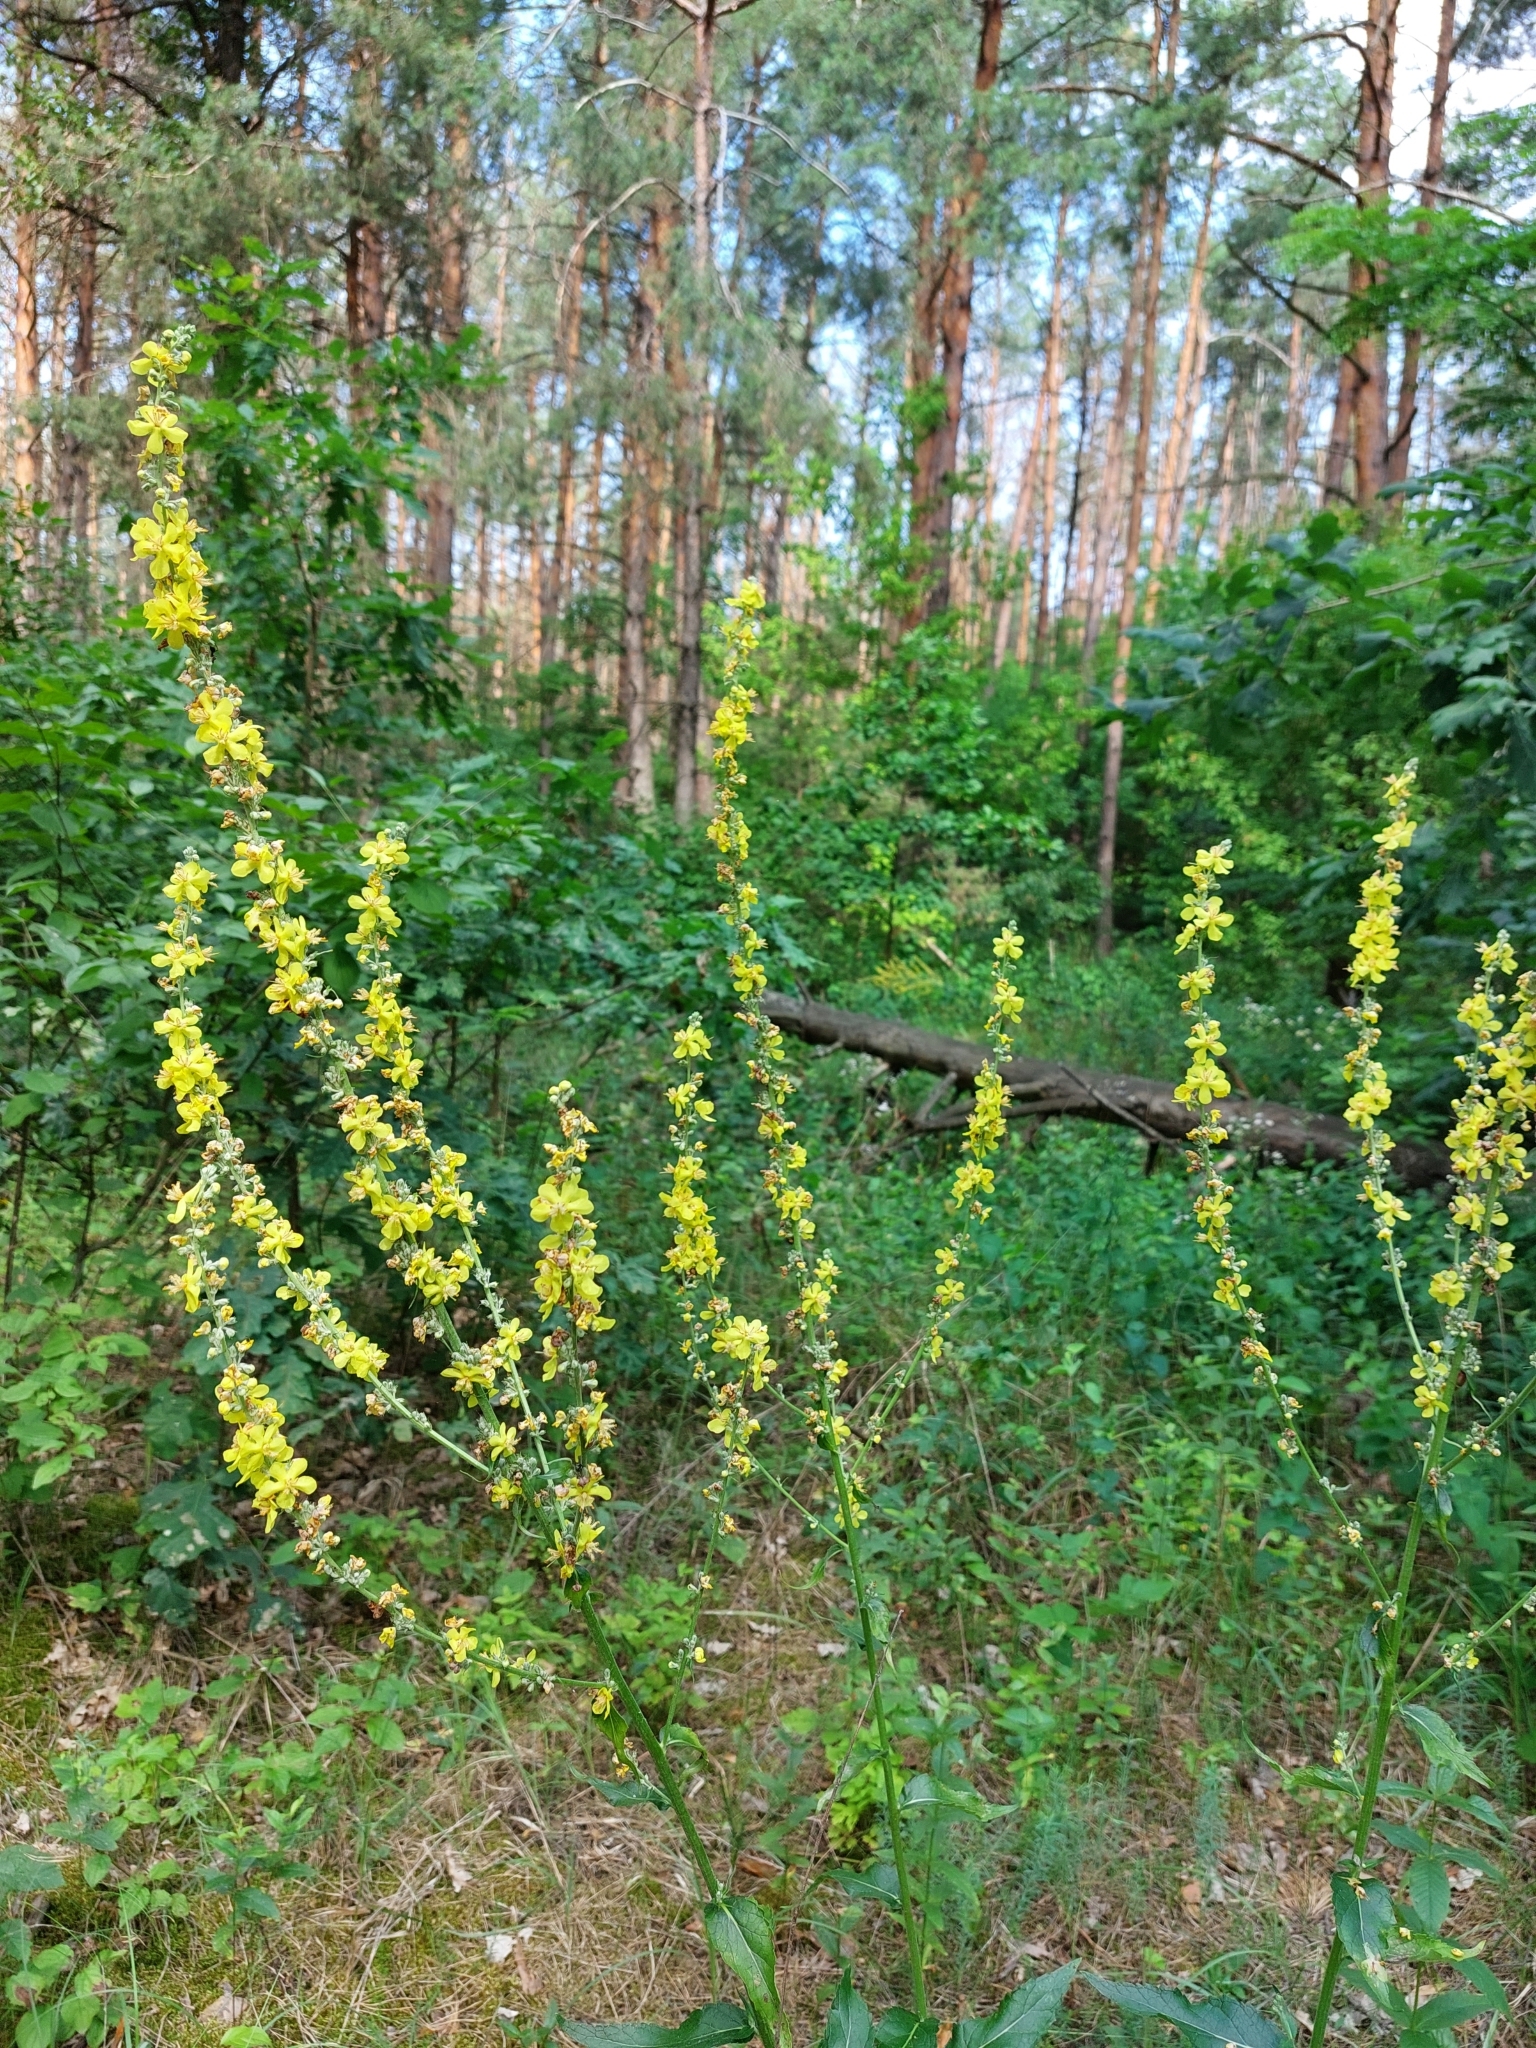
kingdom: Plantae
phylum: Tracheophyta
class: Magnoliopsida
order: Lamiales
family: Scrophulariaceae
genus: Verbascum
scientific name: Verbascum lychnitis
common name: White mullein
